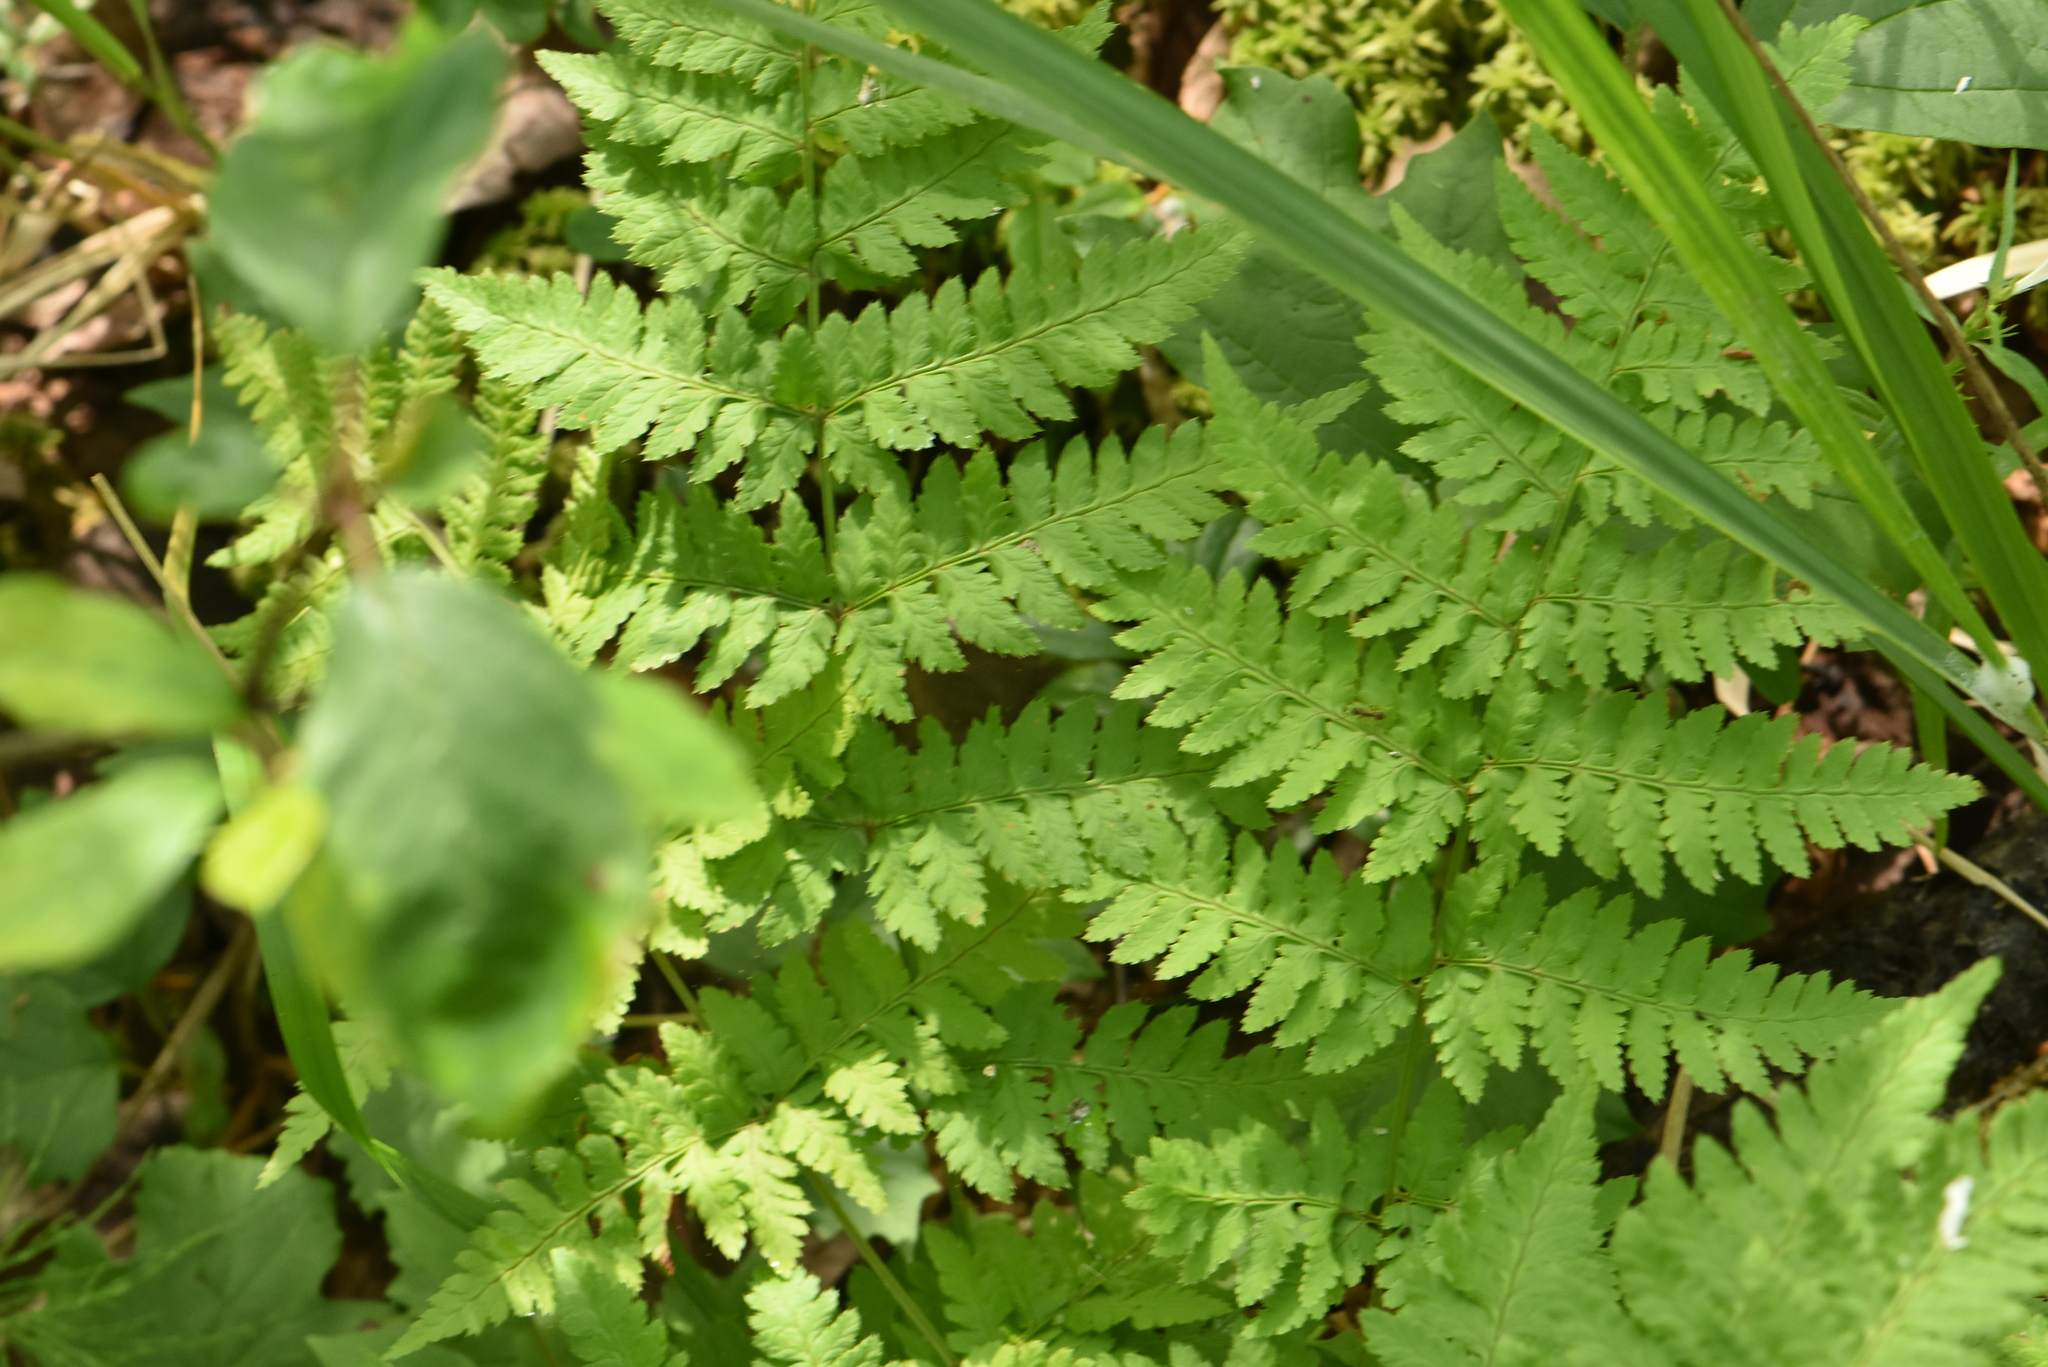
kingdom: Plantae
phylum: Tracheophyta
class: Polypodiopsida
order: Polypodiales
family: Dryopteridaceae
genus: Dryopteris
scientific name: Dryopteris carthusiana
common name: Narrow buckler-fern
